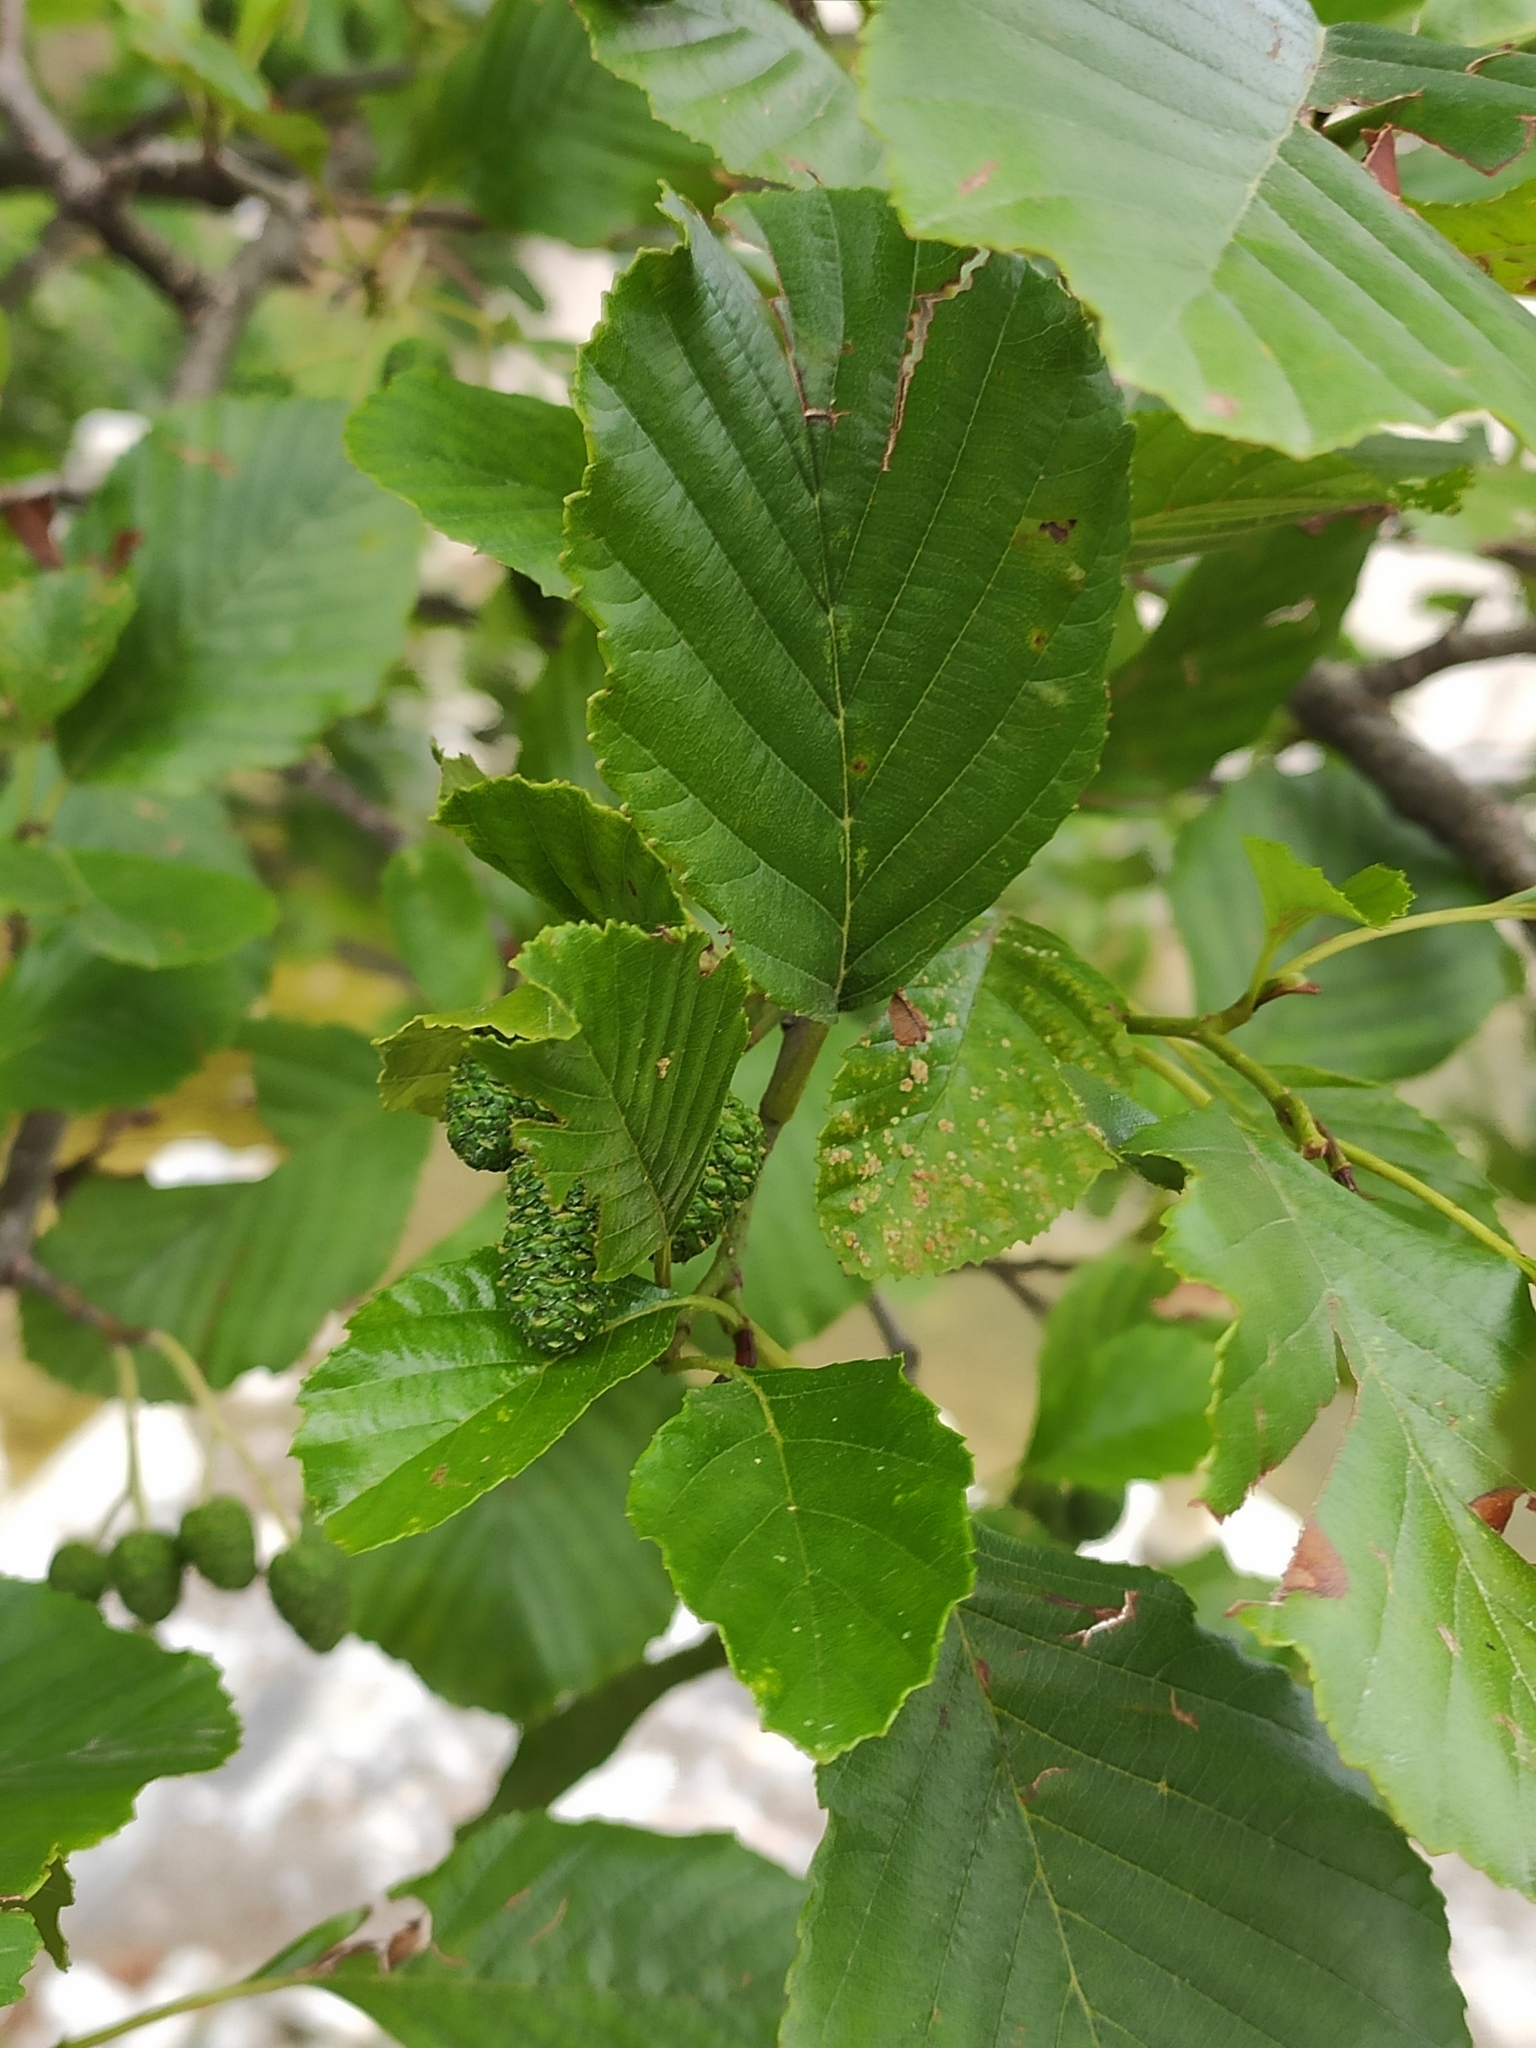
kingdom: Plantae
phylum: Tracheophyta
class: Magnoliopsida
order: Fagales
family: Betulaceae
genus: Alnus
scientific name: Alnus glutinosa
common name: Black alder
